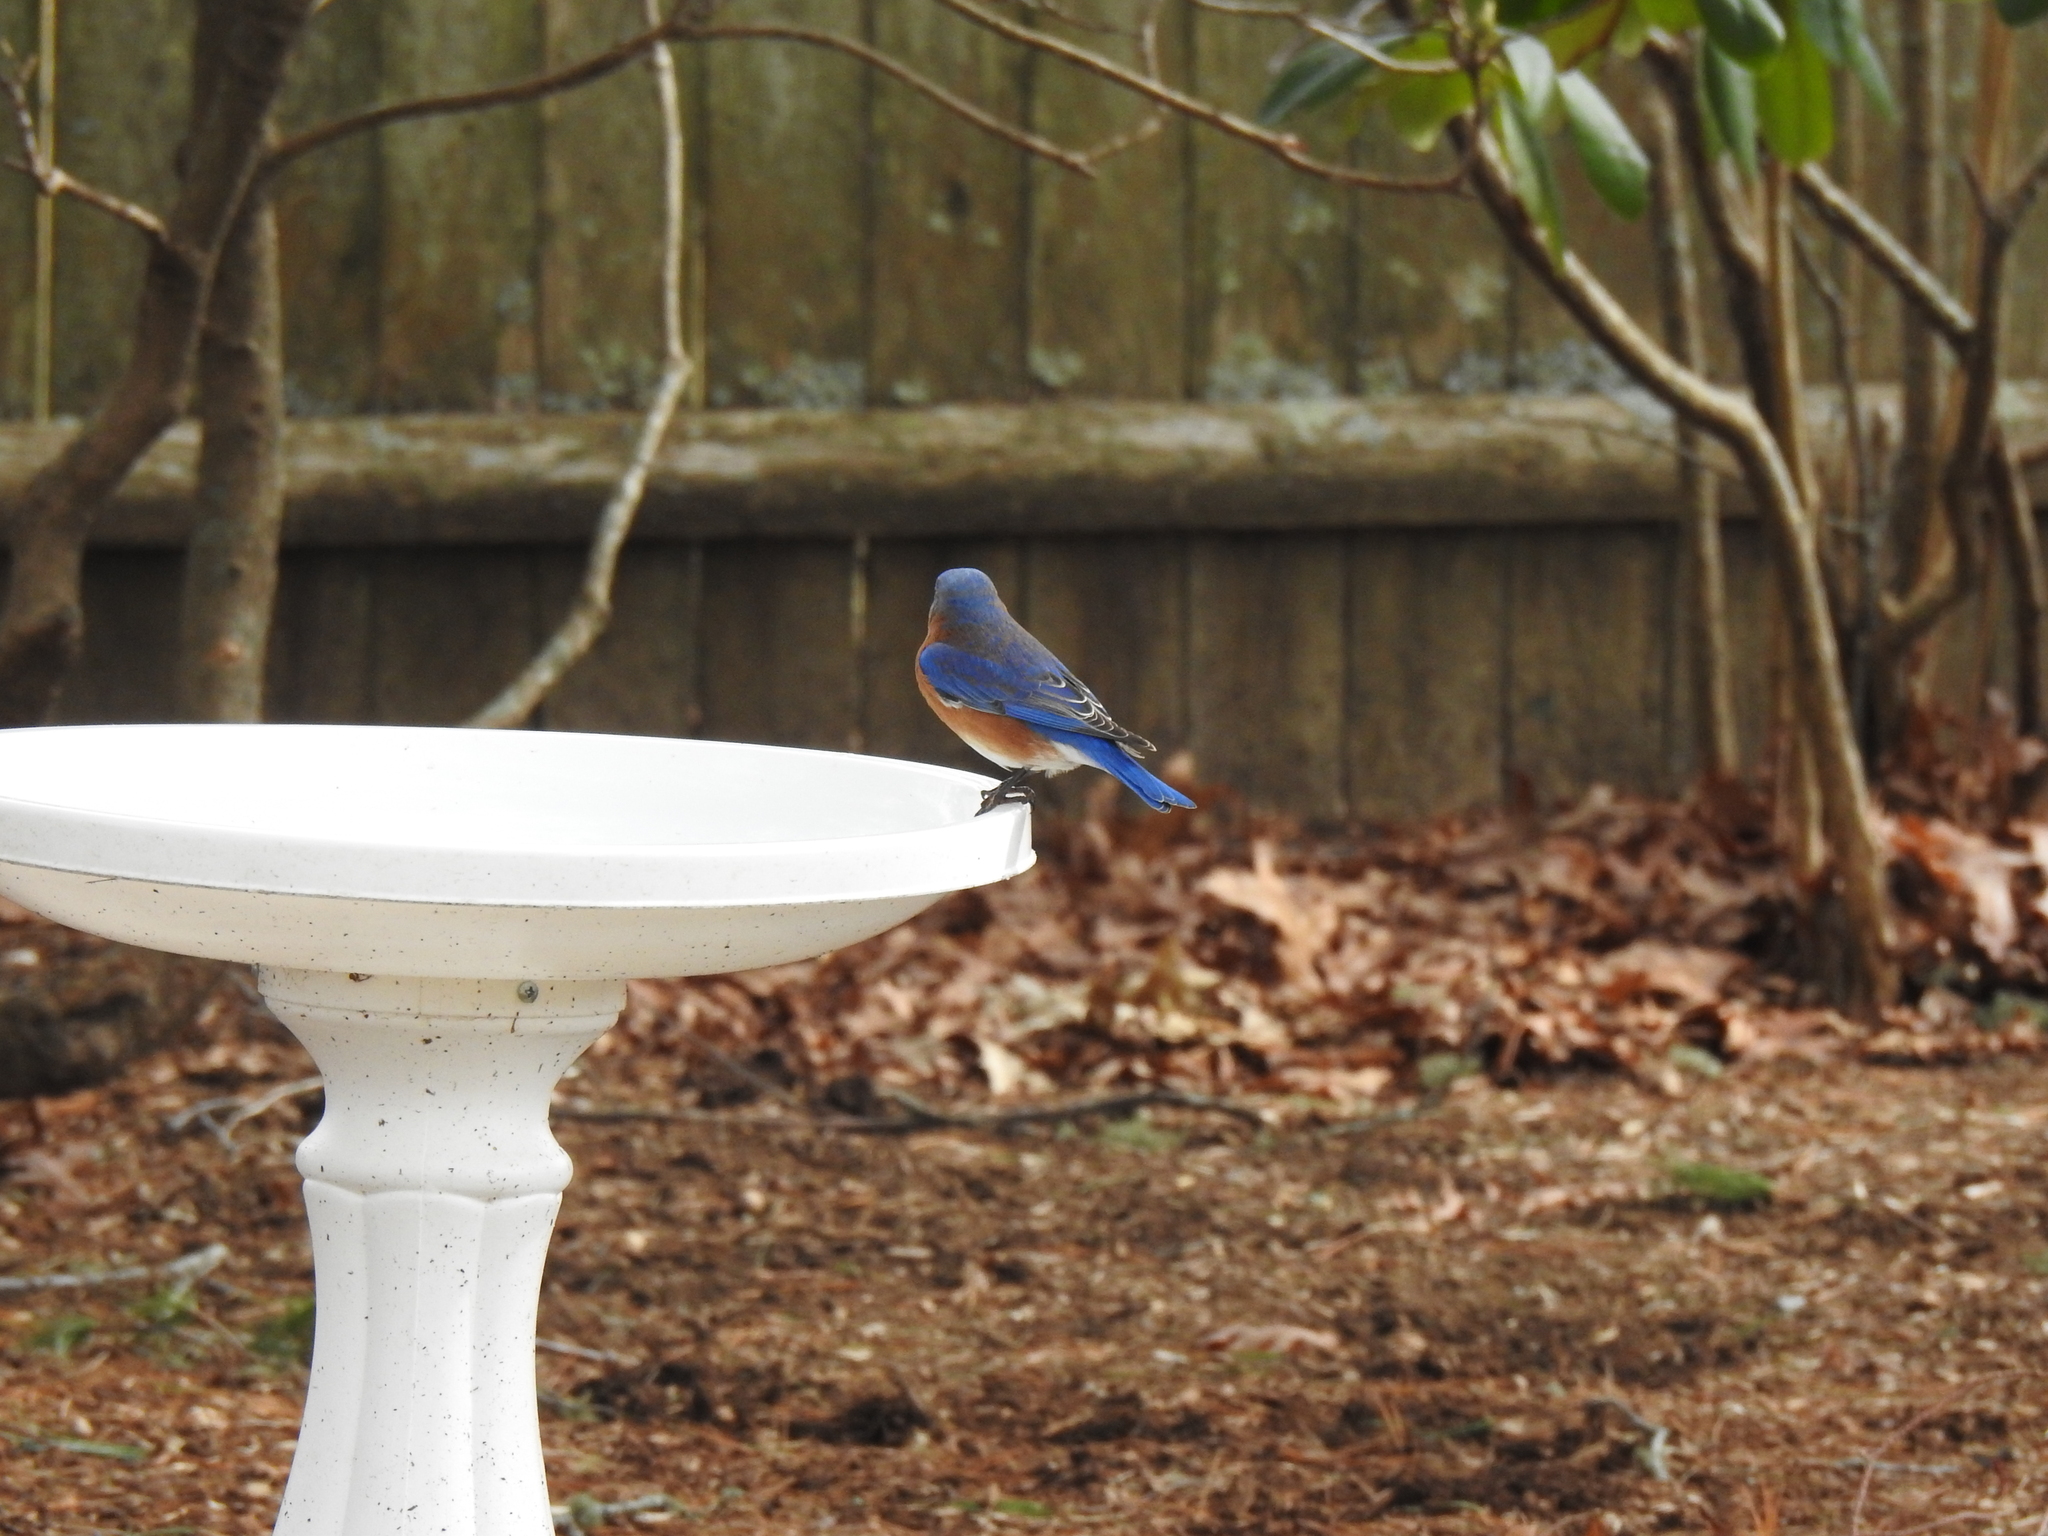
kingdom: Animalia
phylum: Chordata
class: Aves
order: Passeriformes
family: Turdidae
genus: Sialia
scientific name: Sialia sialis
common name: Eastern bluebird
